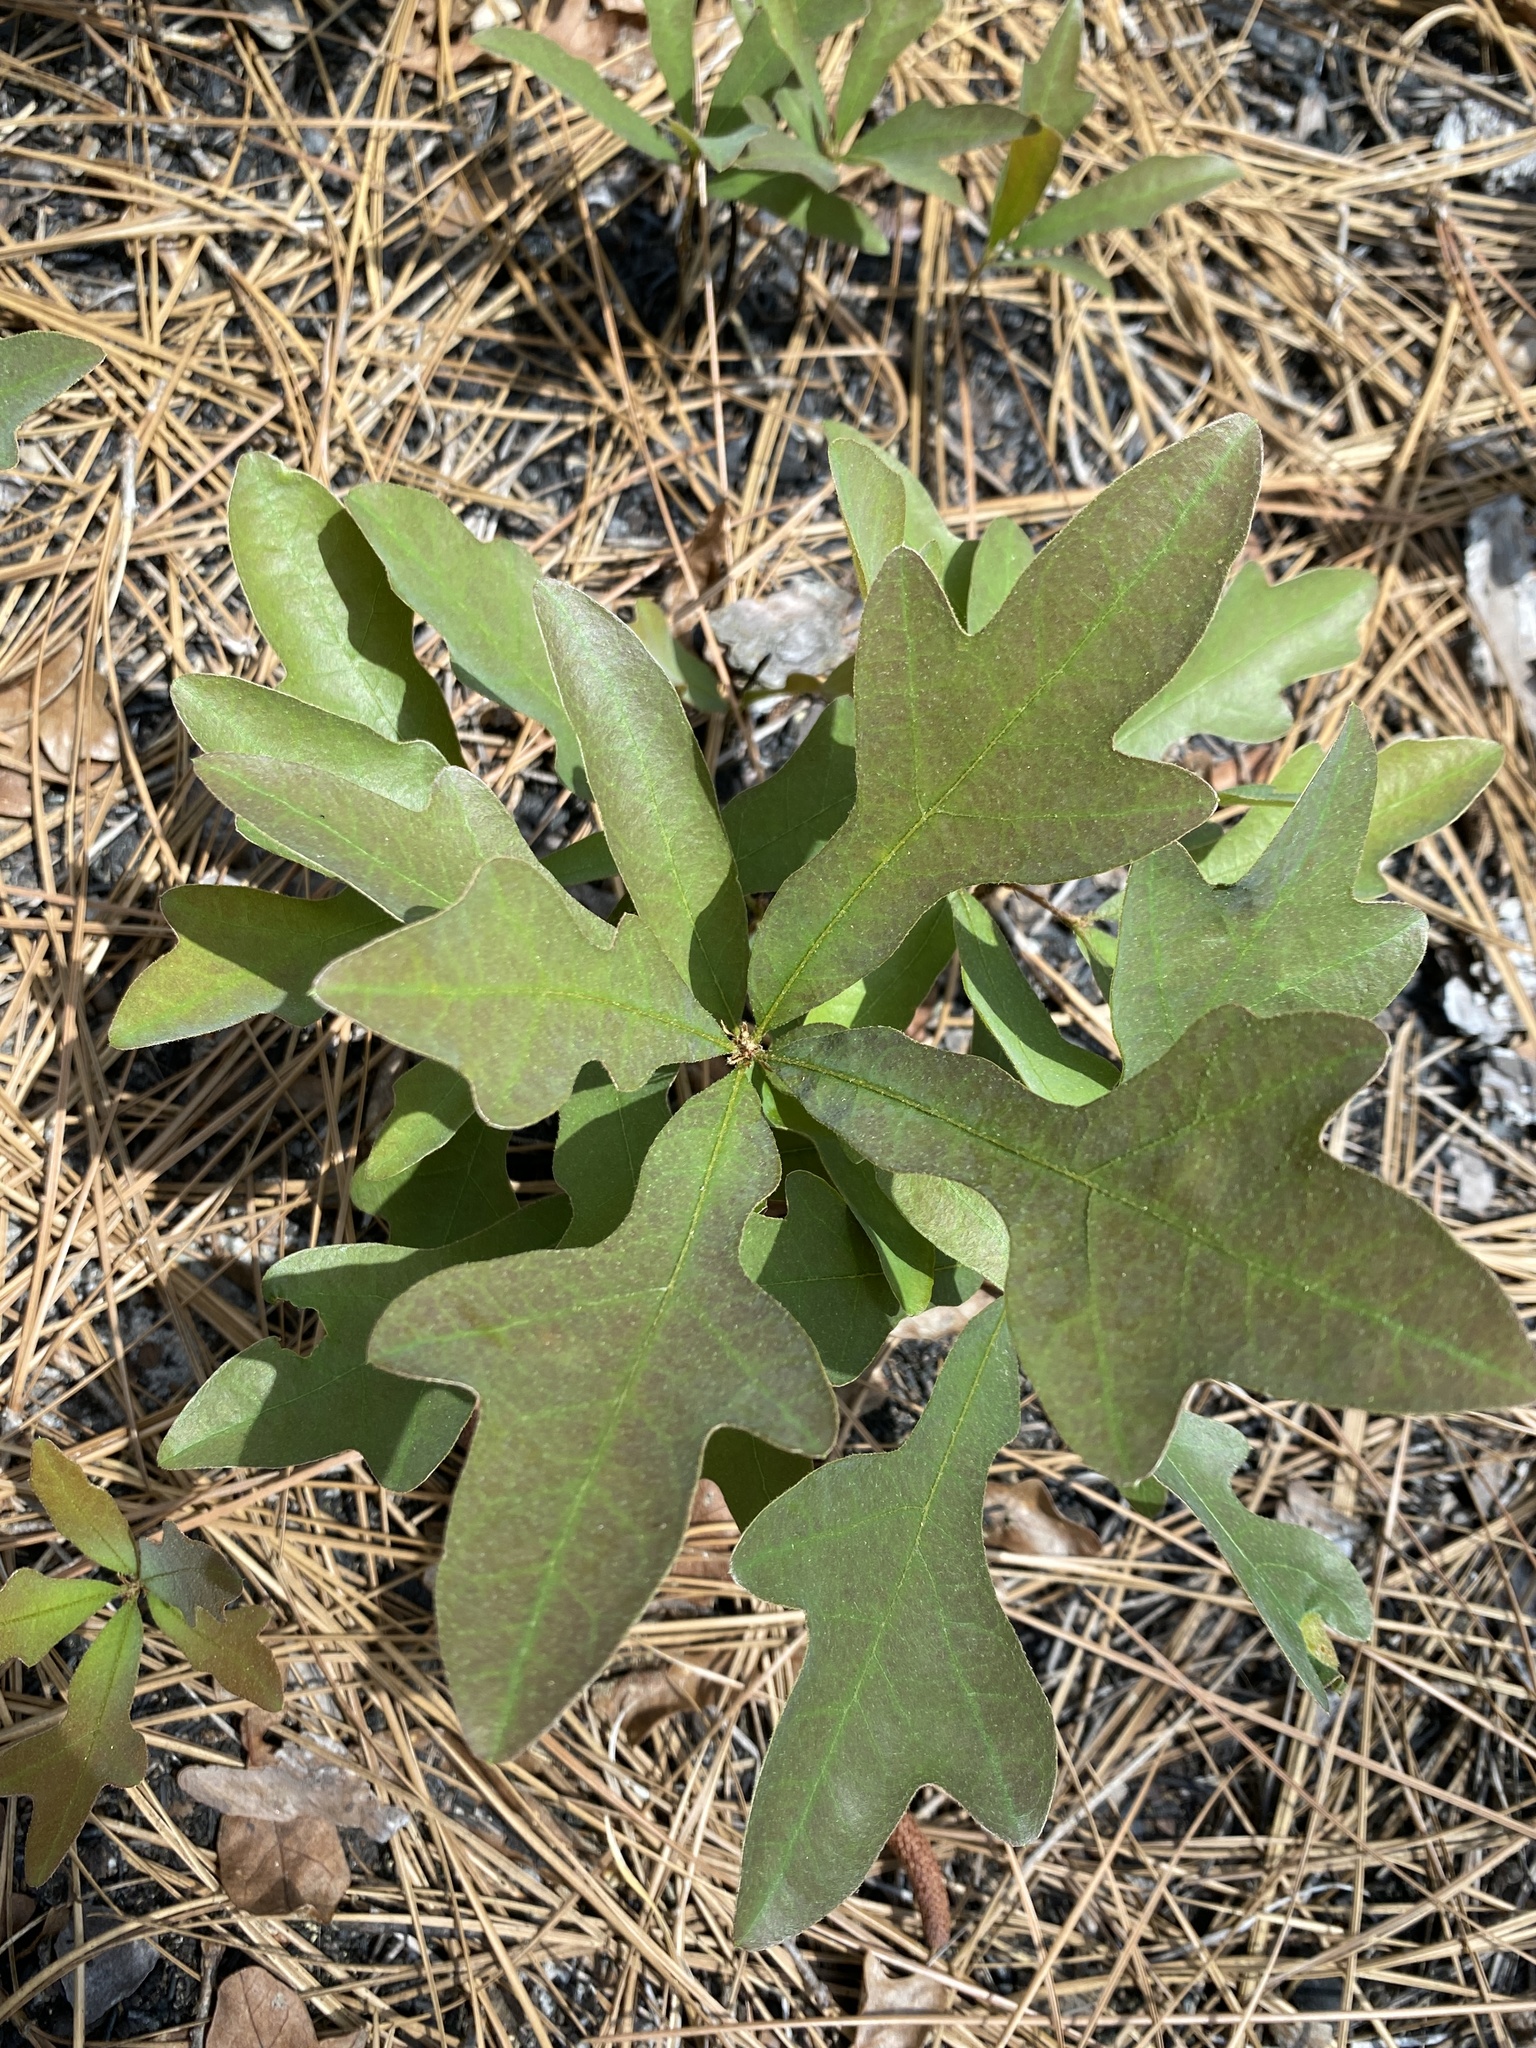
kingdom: Plantae
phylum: Tracheophyta
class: Magnoliopsida
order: Fagales
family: Fagaceae
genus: Quercus
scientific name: Quercus margaretiae
